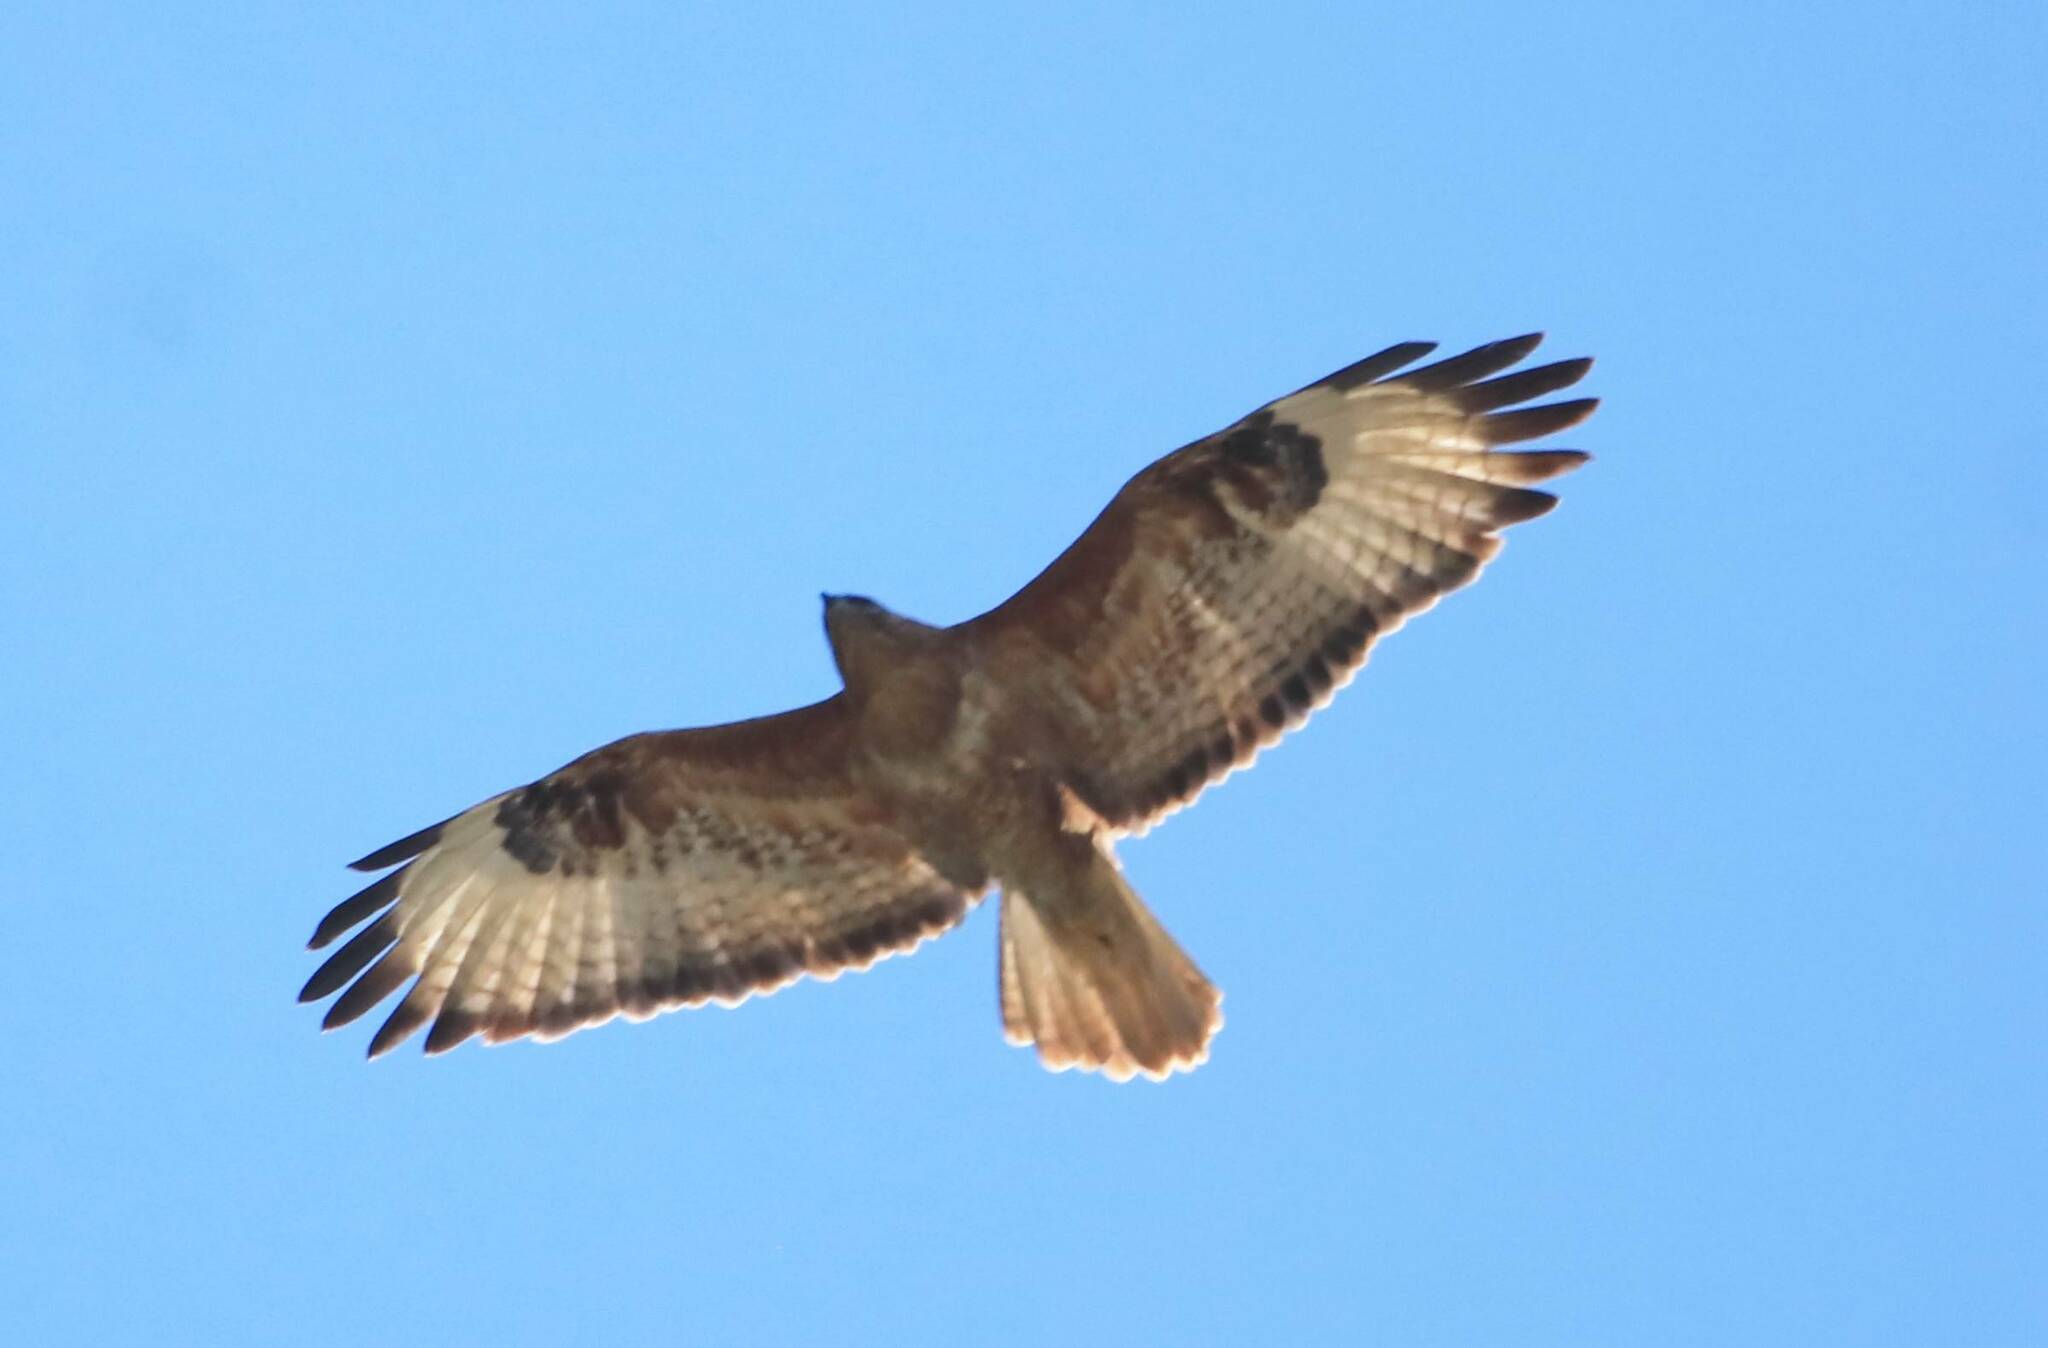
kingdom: Animalia
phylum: Chordata
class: Aves
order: Accipitriformes
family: Accipitridae
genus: Buteo
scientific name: Buteo rufinus
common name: Long-legged buzzard
